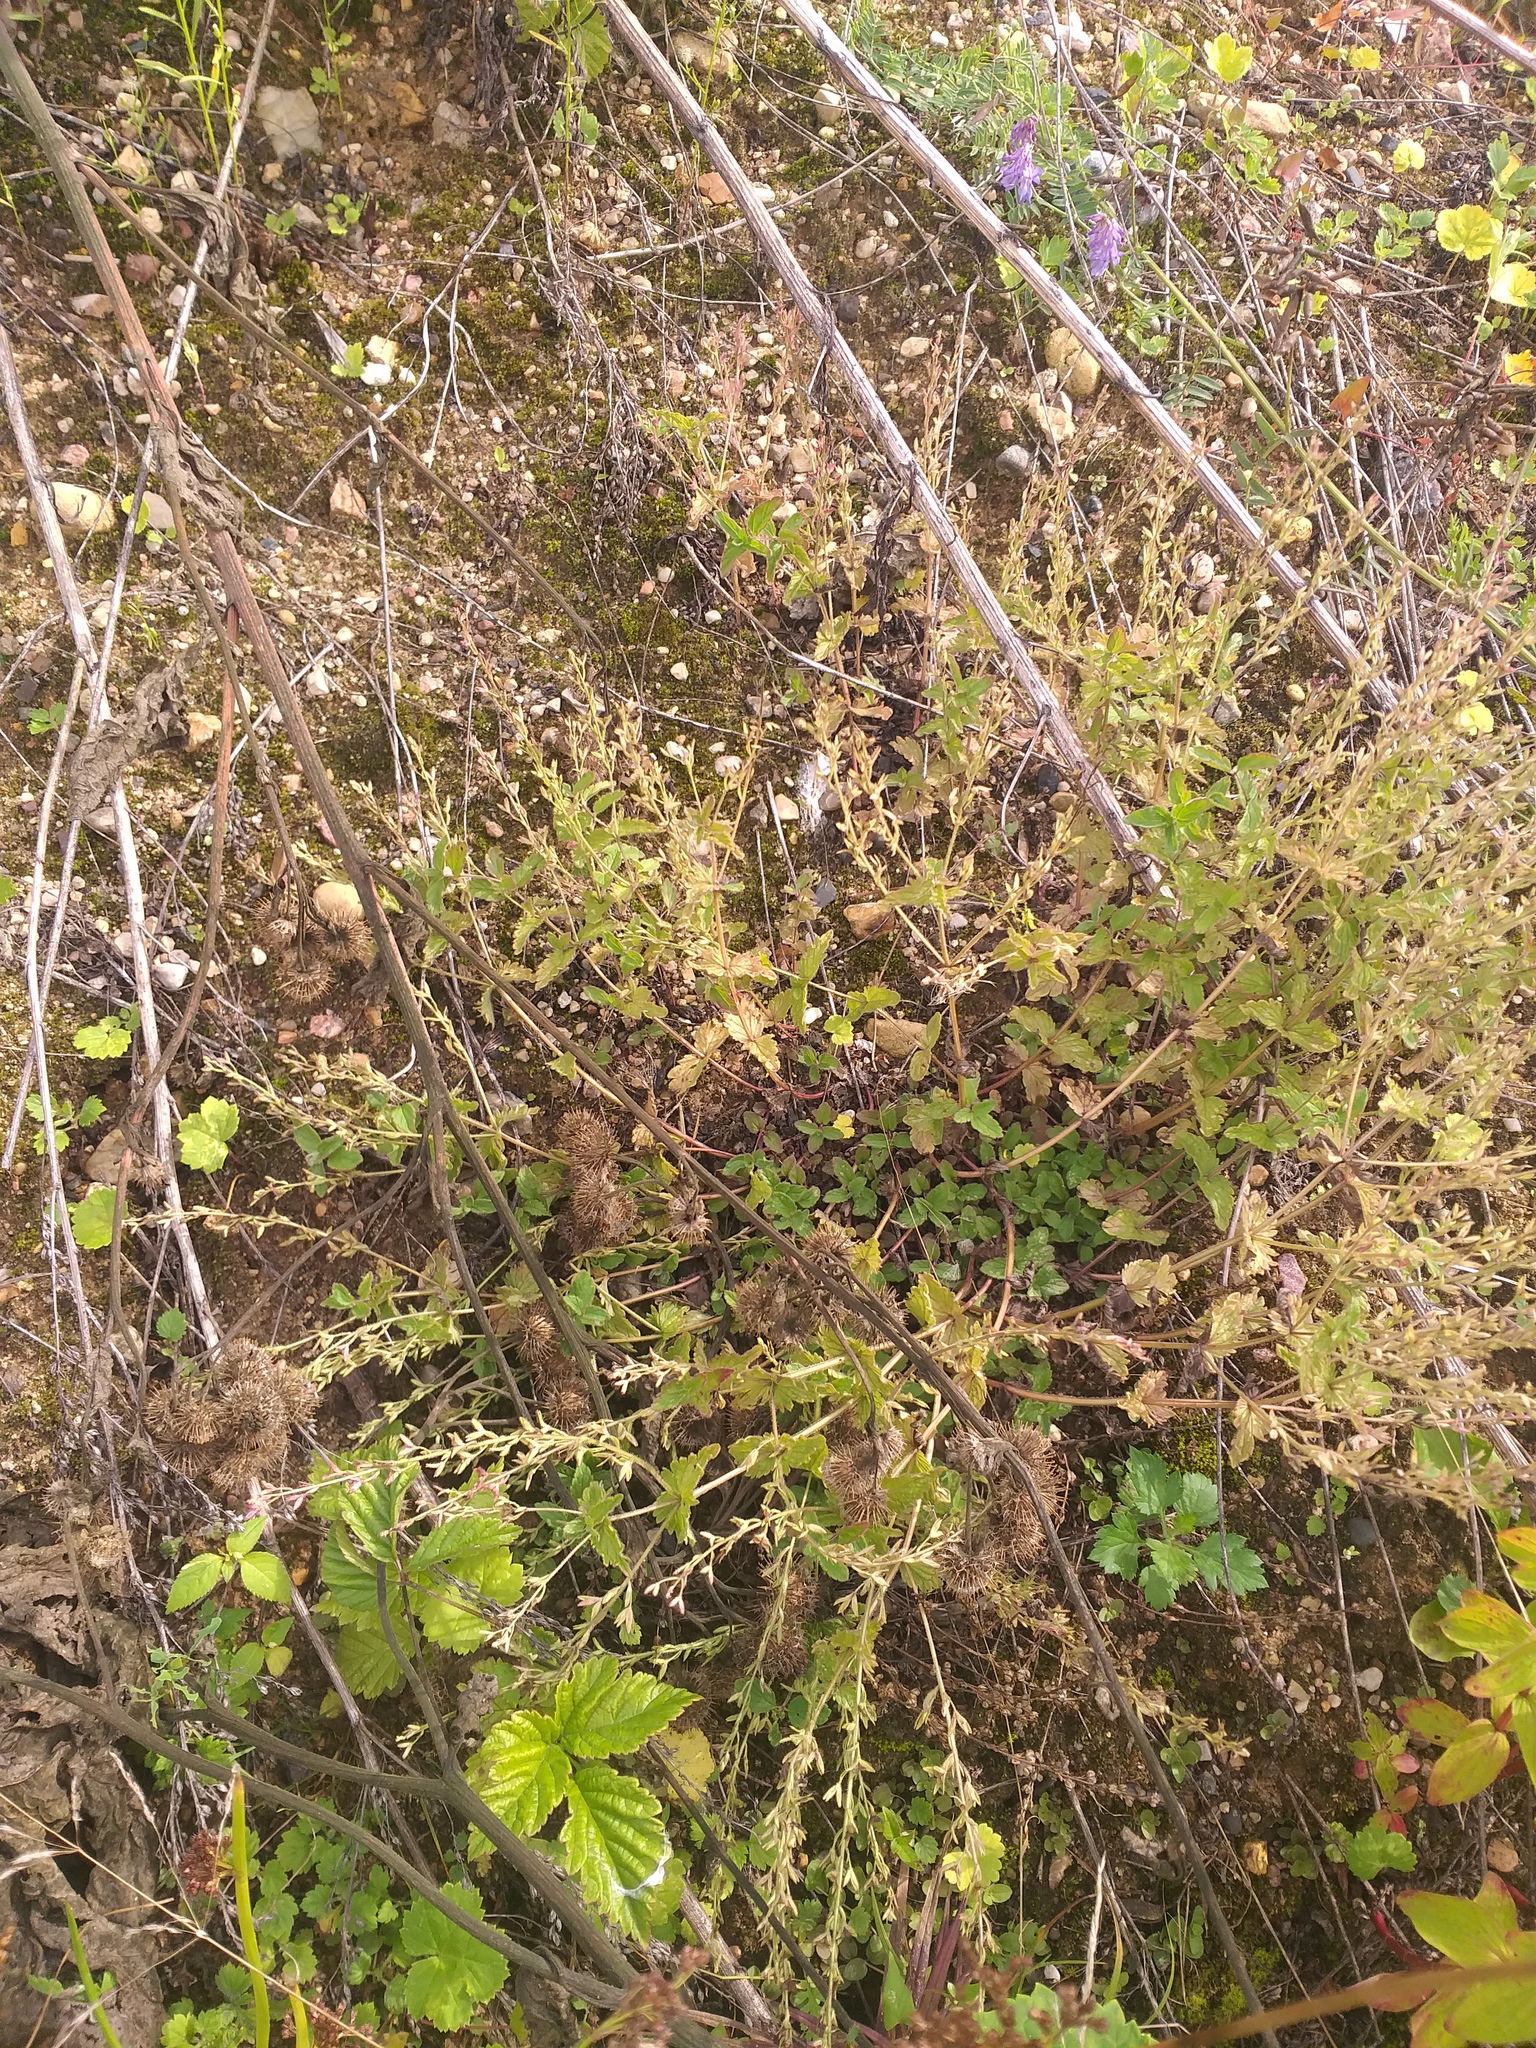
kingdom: Plantae
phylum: Tracheophyta
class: Magnoliopsida
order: Lamiales
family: Plantaginaceae
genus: Veronica
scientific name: Veronica chamaedrys
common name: Germander speedwell
